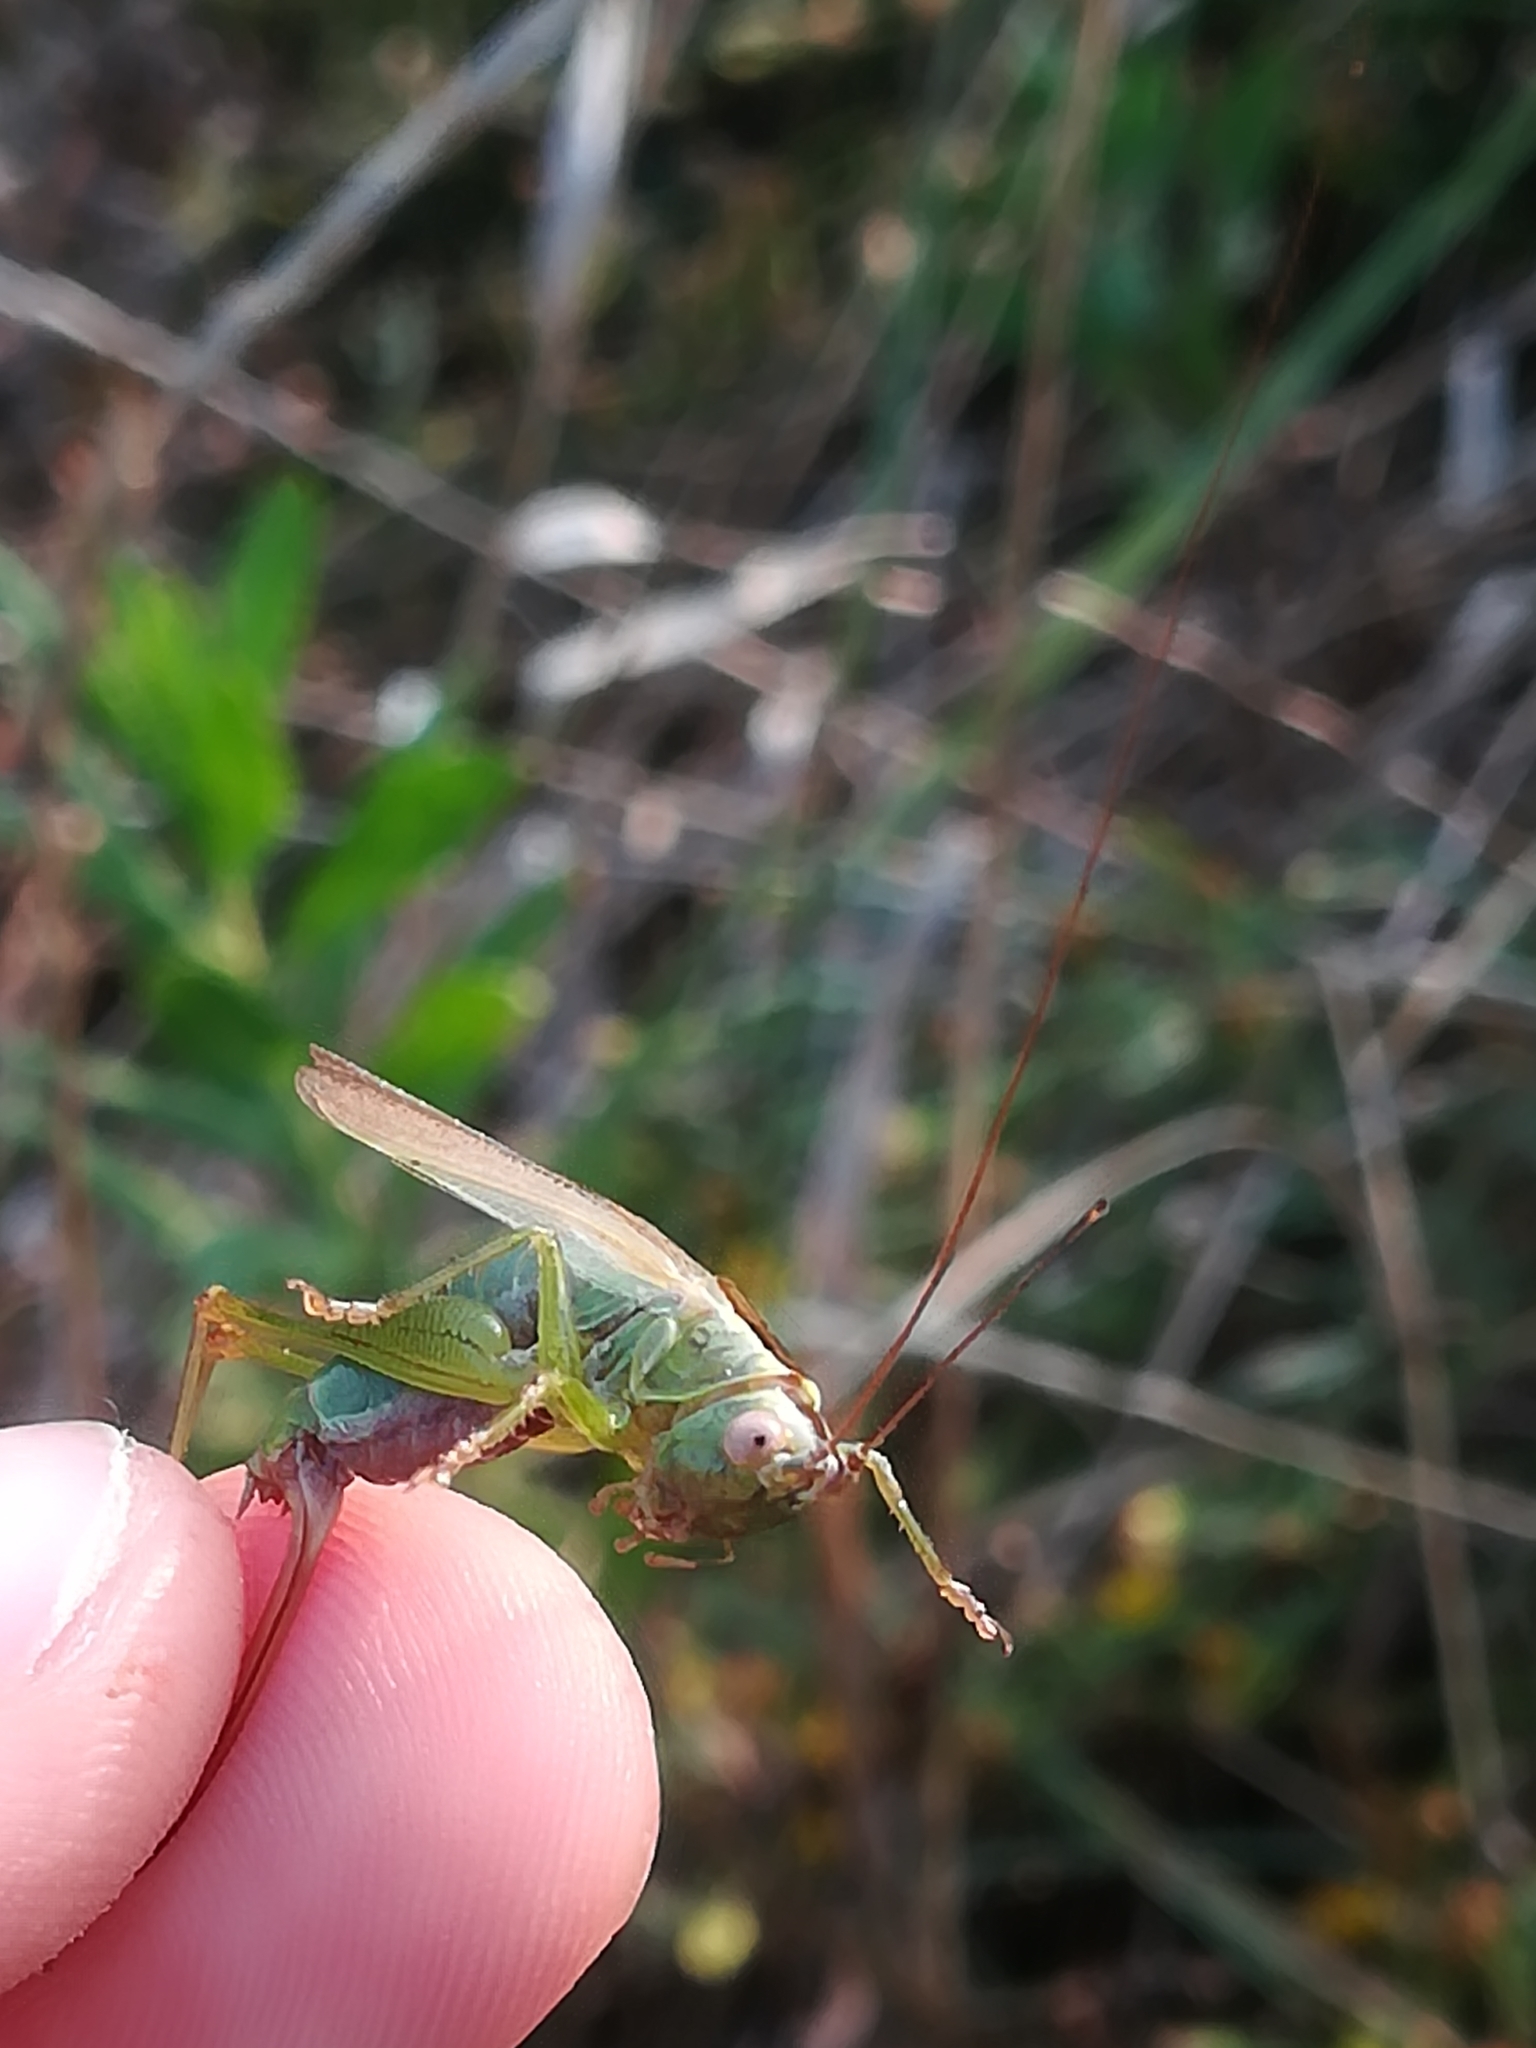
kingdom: Animalia
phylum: Arthropoda
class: Insecta
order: Orthoptera
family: Tettigoniidae
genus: Conocephalus
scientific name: Conocephalus fuscus
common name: Long-winged conehead
